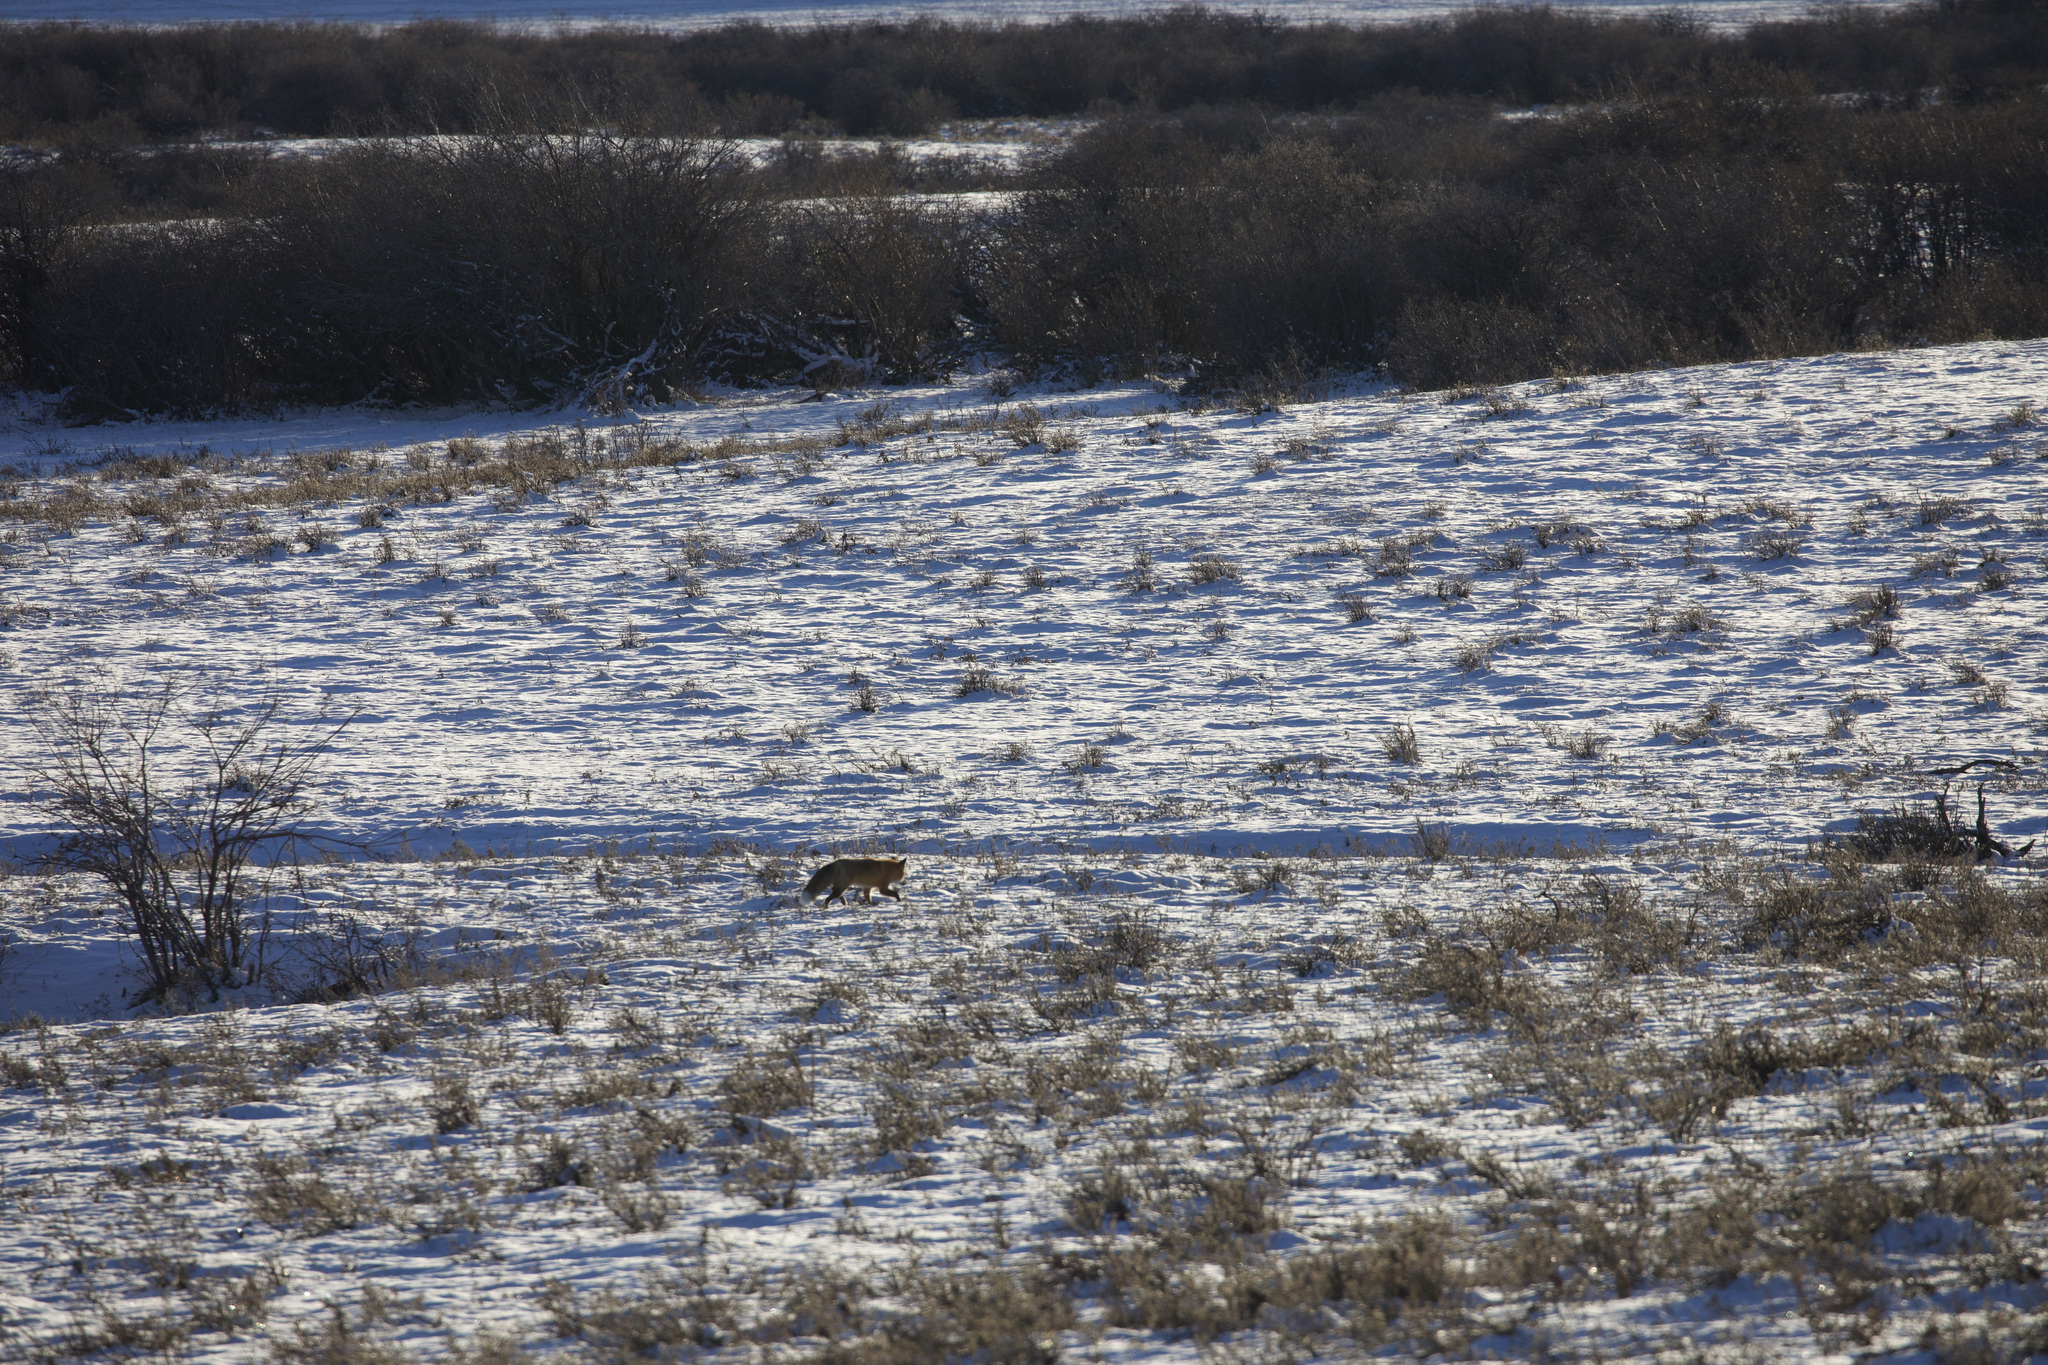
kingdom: Animalia
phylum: Chordata
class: Mammalia
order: Carnivora
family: Canidae
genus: Vulpes
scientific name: Vulpes vulpes
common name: Red fox
